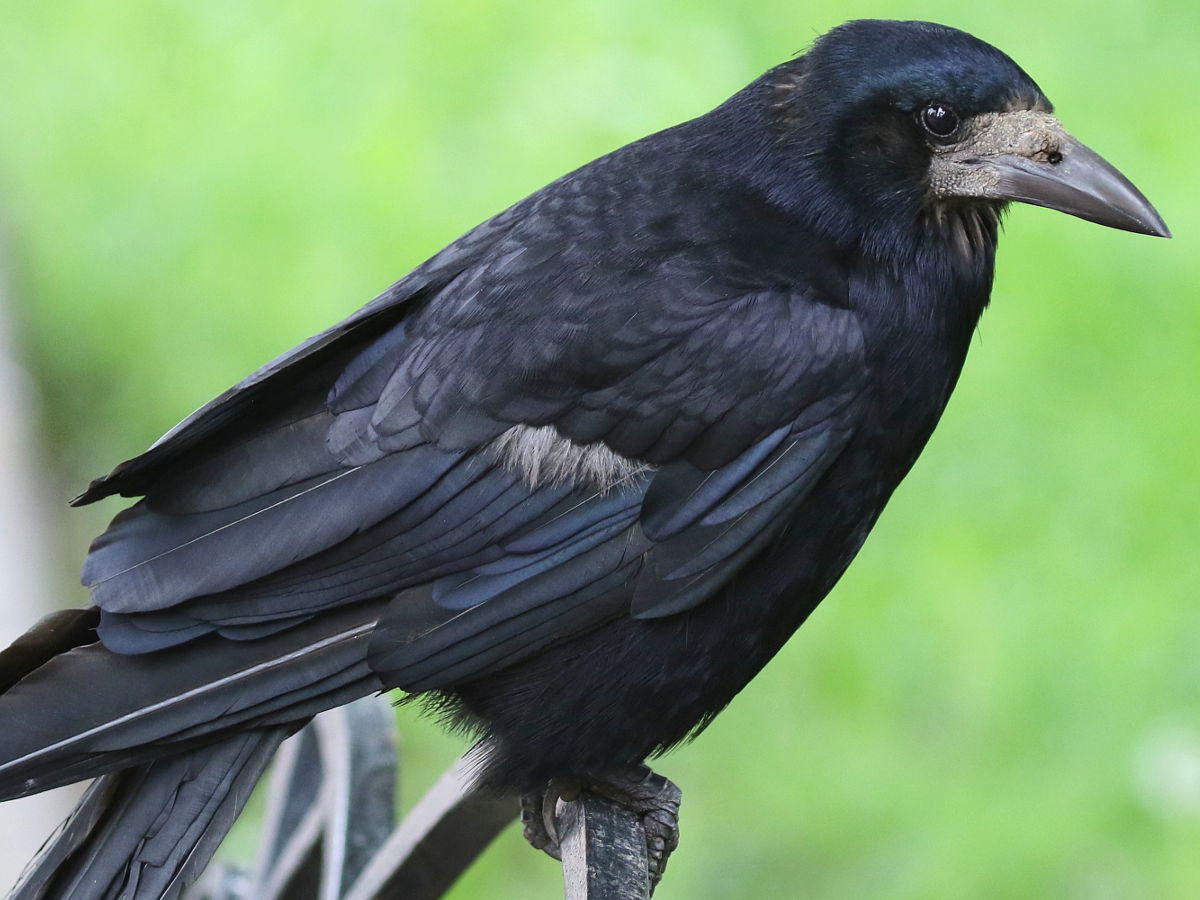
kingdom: Animalia
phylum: Chordata
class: Aves
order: Passeriformes
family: Corvidae
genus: Corvus
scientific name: Corvus frugilegus
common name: Rook
